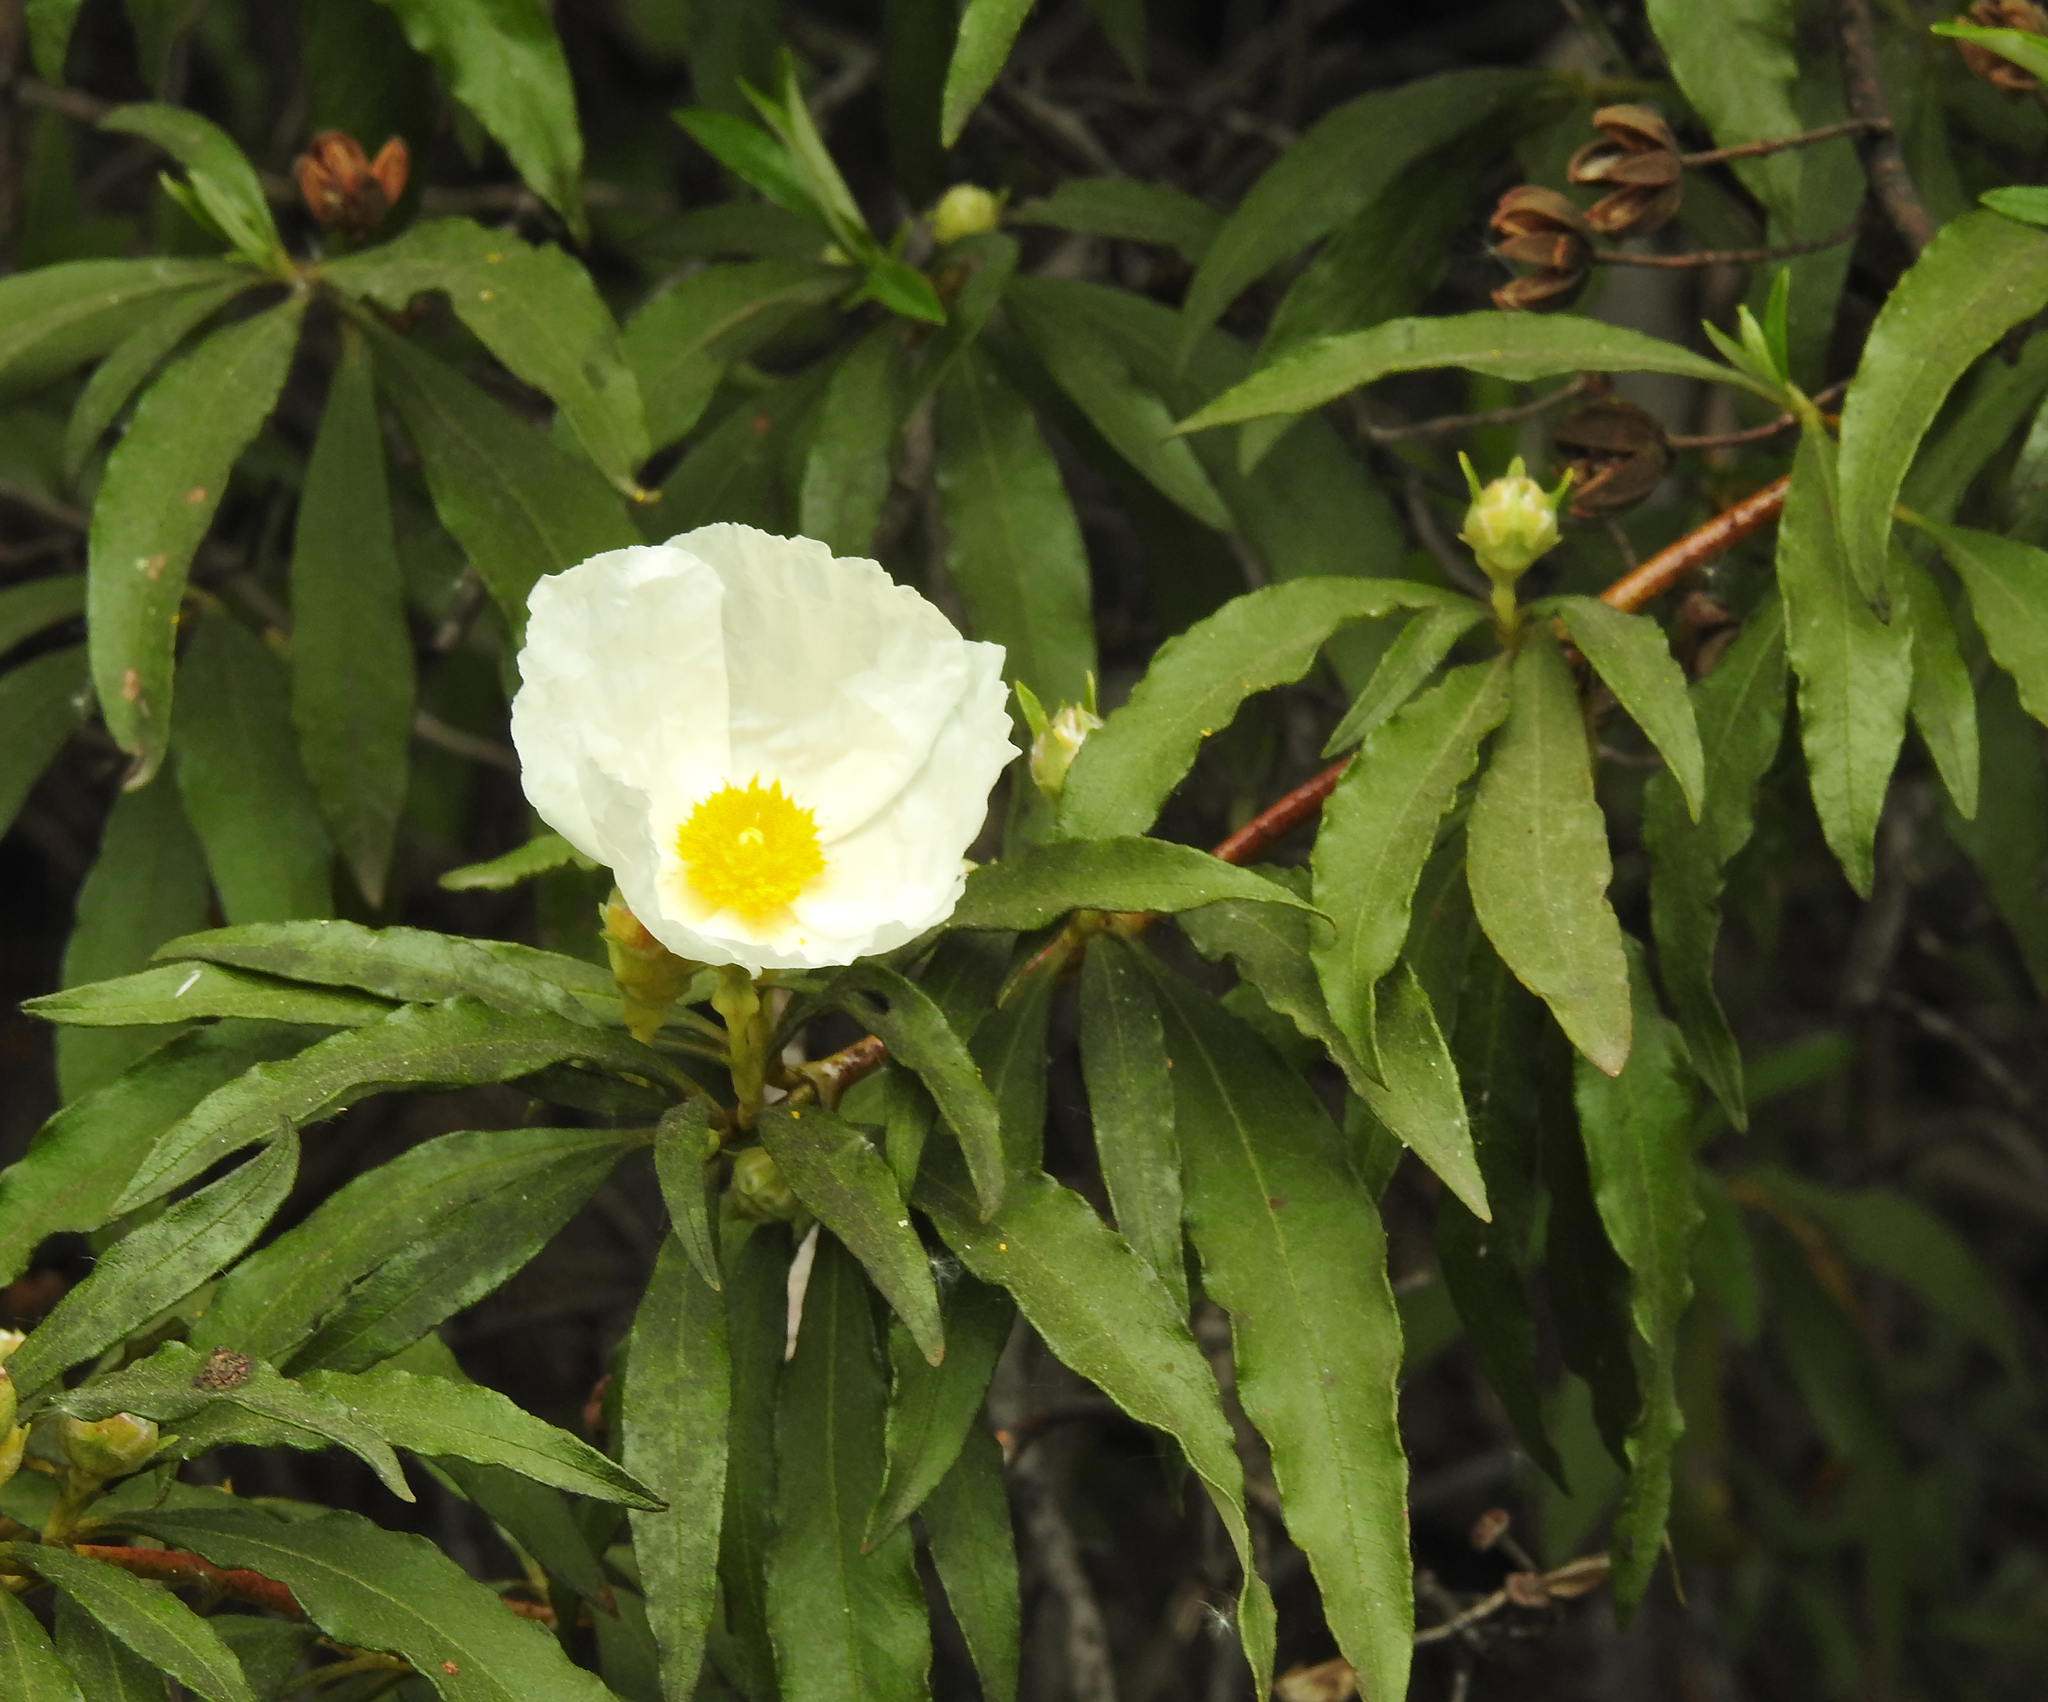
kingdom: Plantae
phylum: Tracheophyta
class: Magnoliopsida
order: Malvales
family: Cistaceae
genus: Cistus
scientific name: Cistus ladanifer
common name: Common gum cistus
